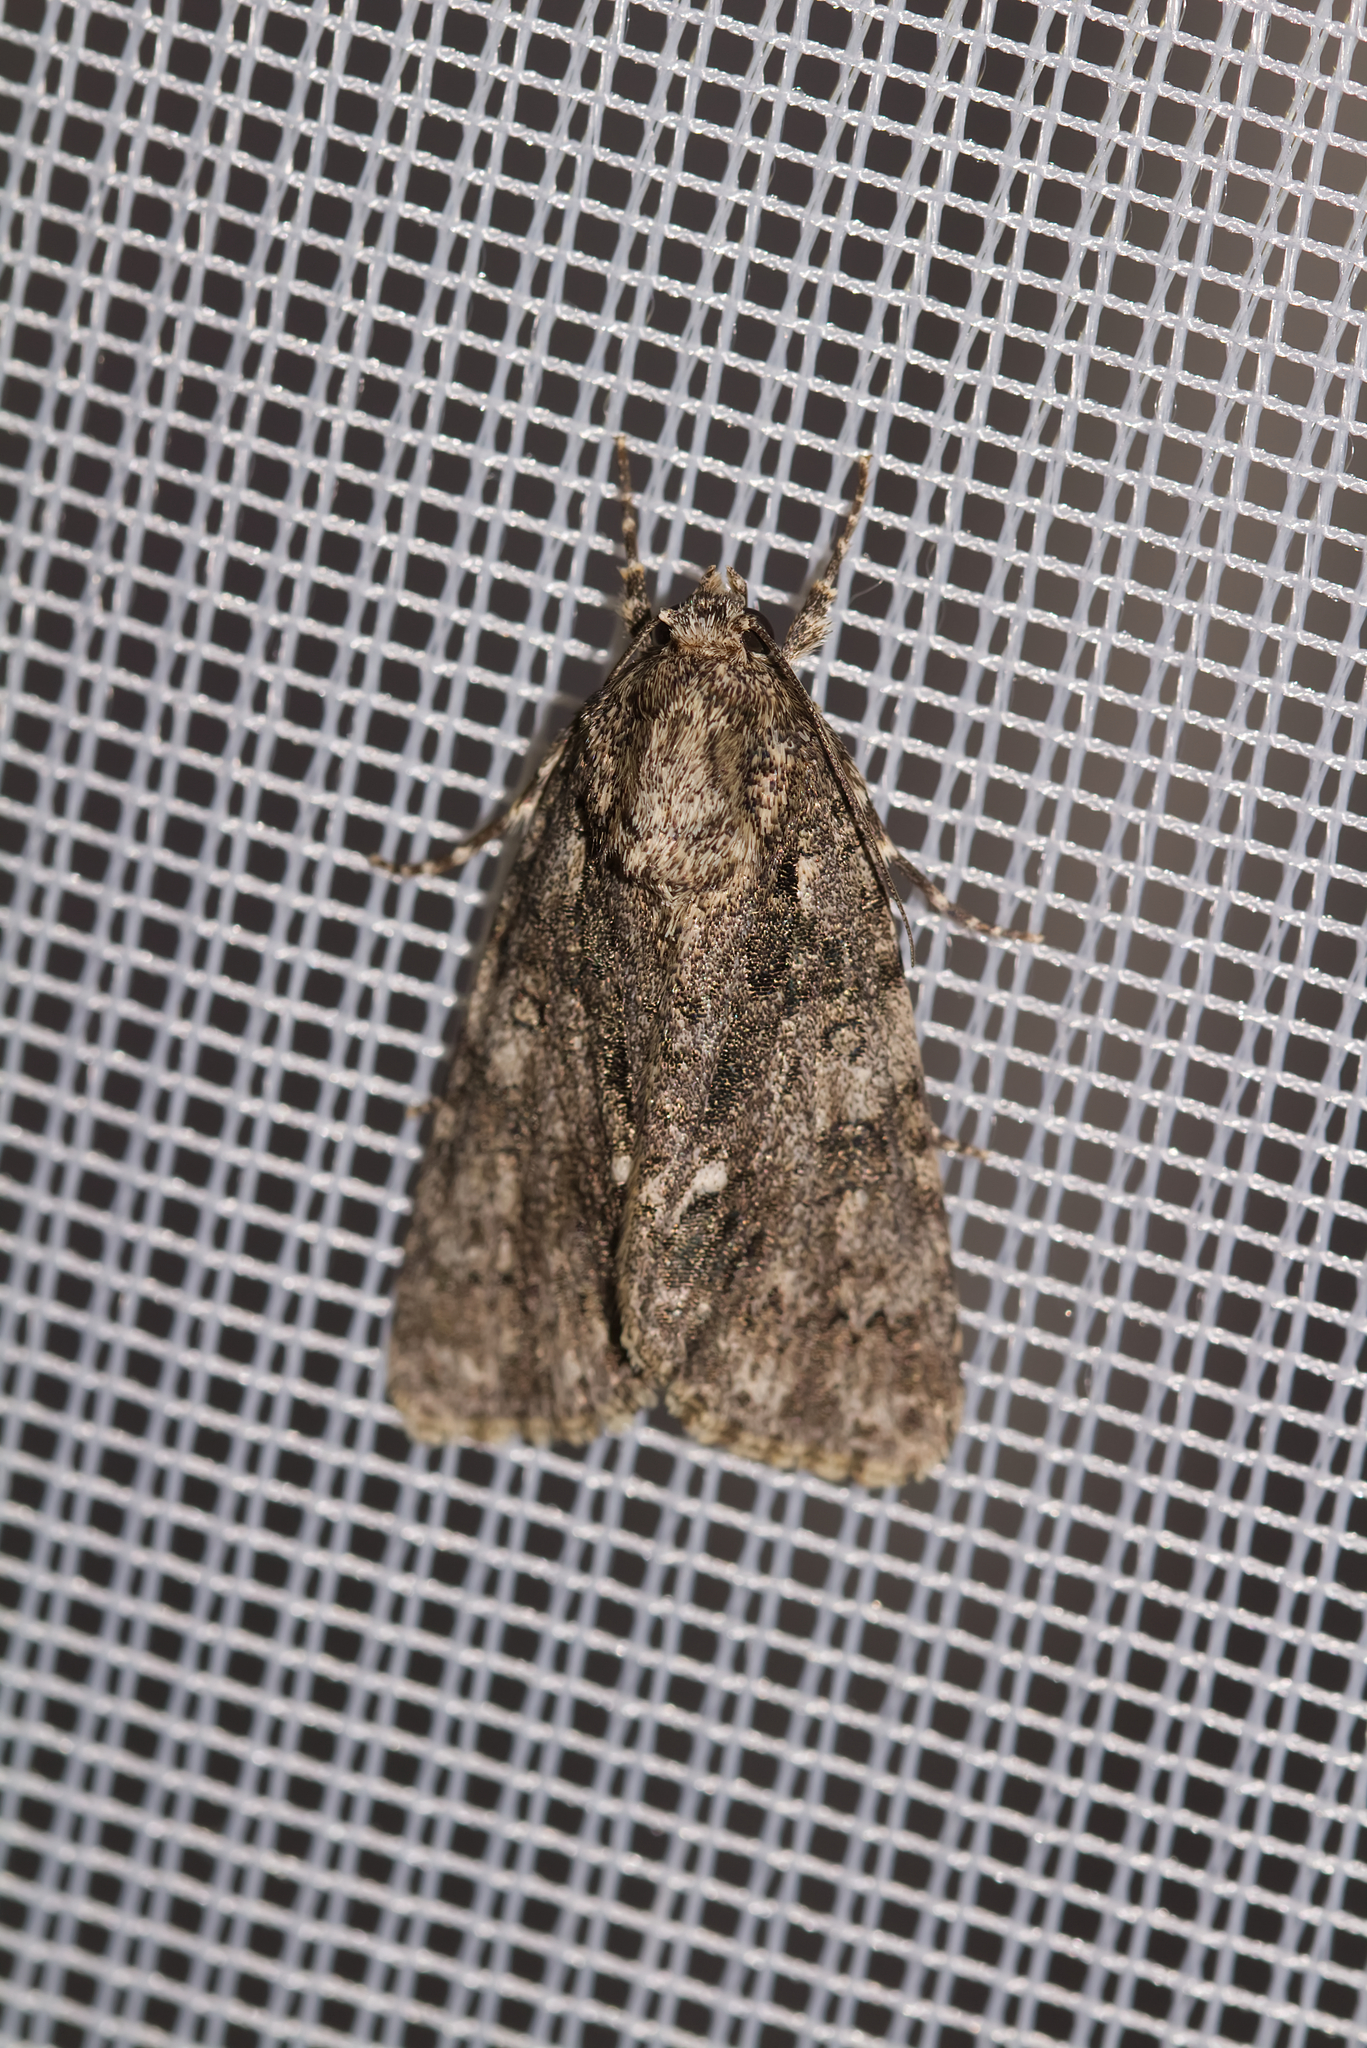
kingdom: Animalia
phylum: Arthropoda
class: Insecta
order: Lepidoptera
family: Noctuidae
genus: Acronicta
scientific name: Acronicta rumicis
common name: Knot grass
